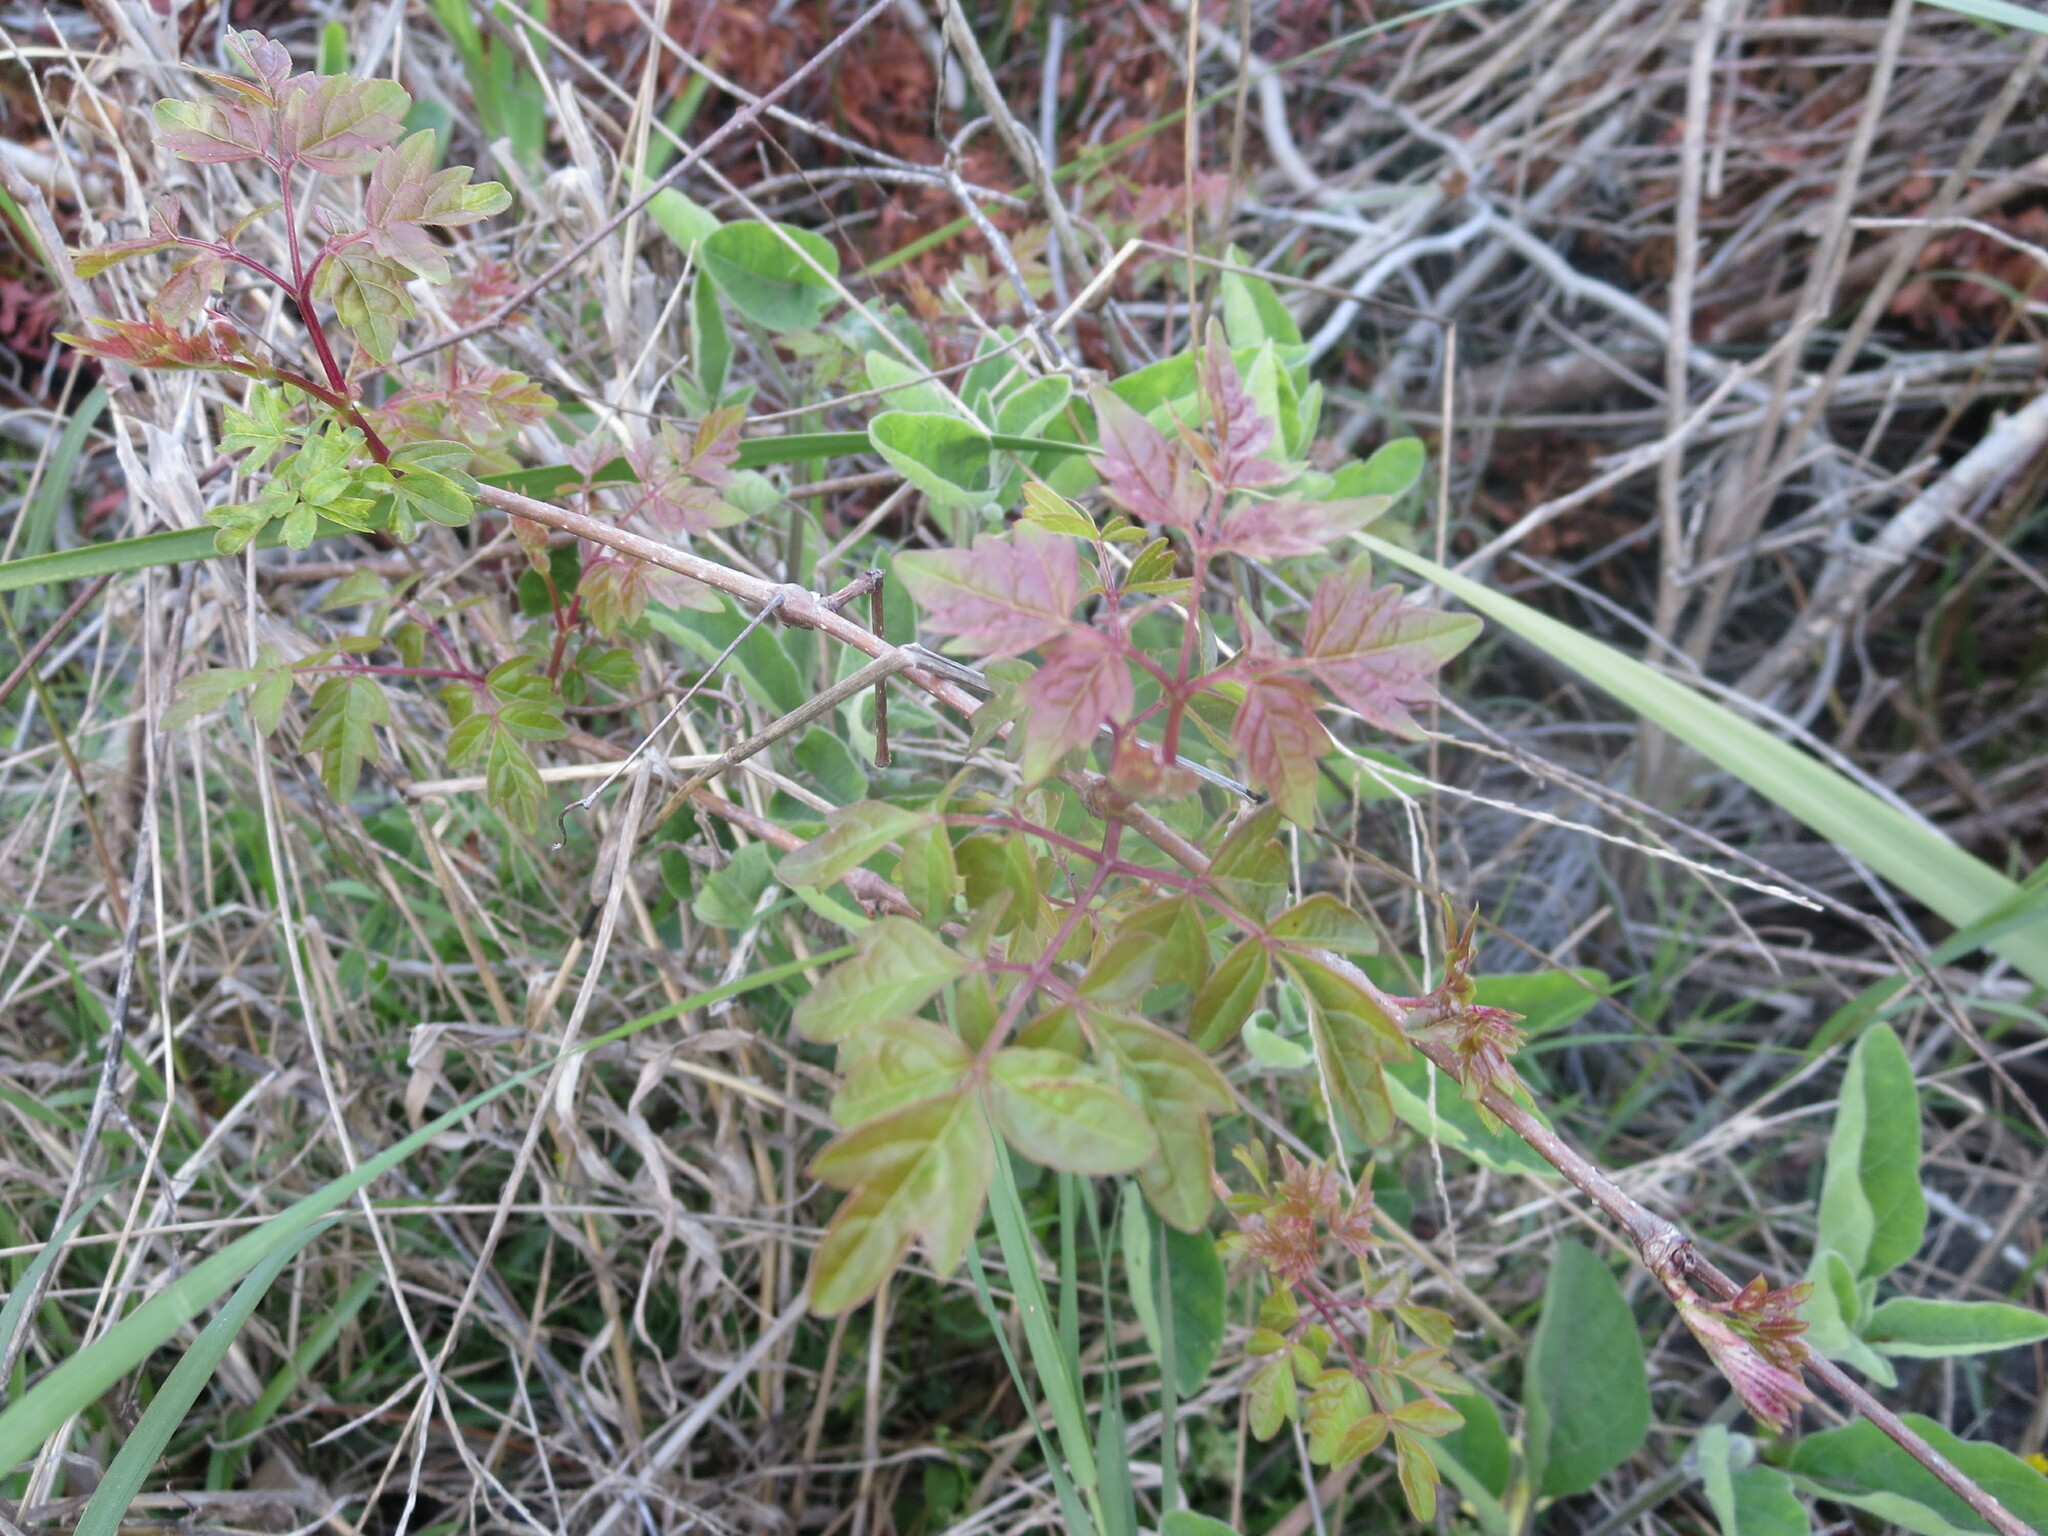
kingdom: Plantae
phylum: Tracheophyta
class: Magnoliopsida
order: Vitales
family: Vitaceae
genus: Nekemias
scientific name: Nekemias arborea
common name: Peppervine
